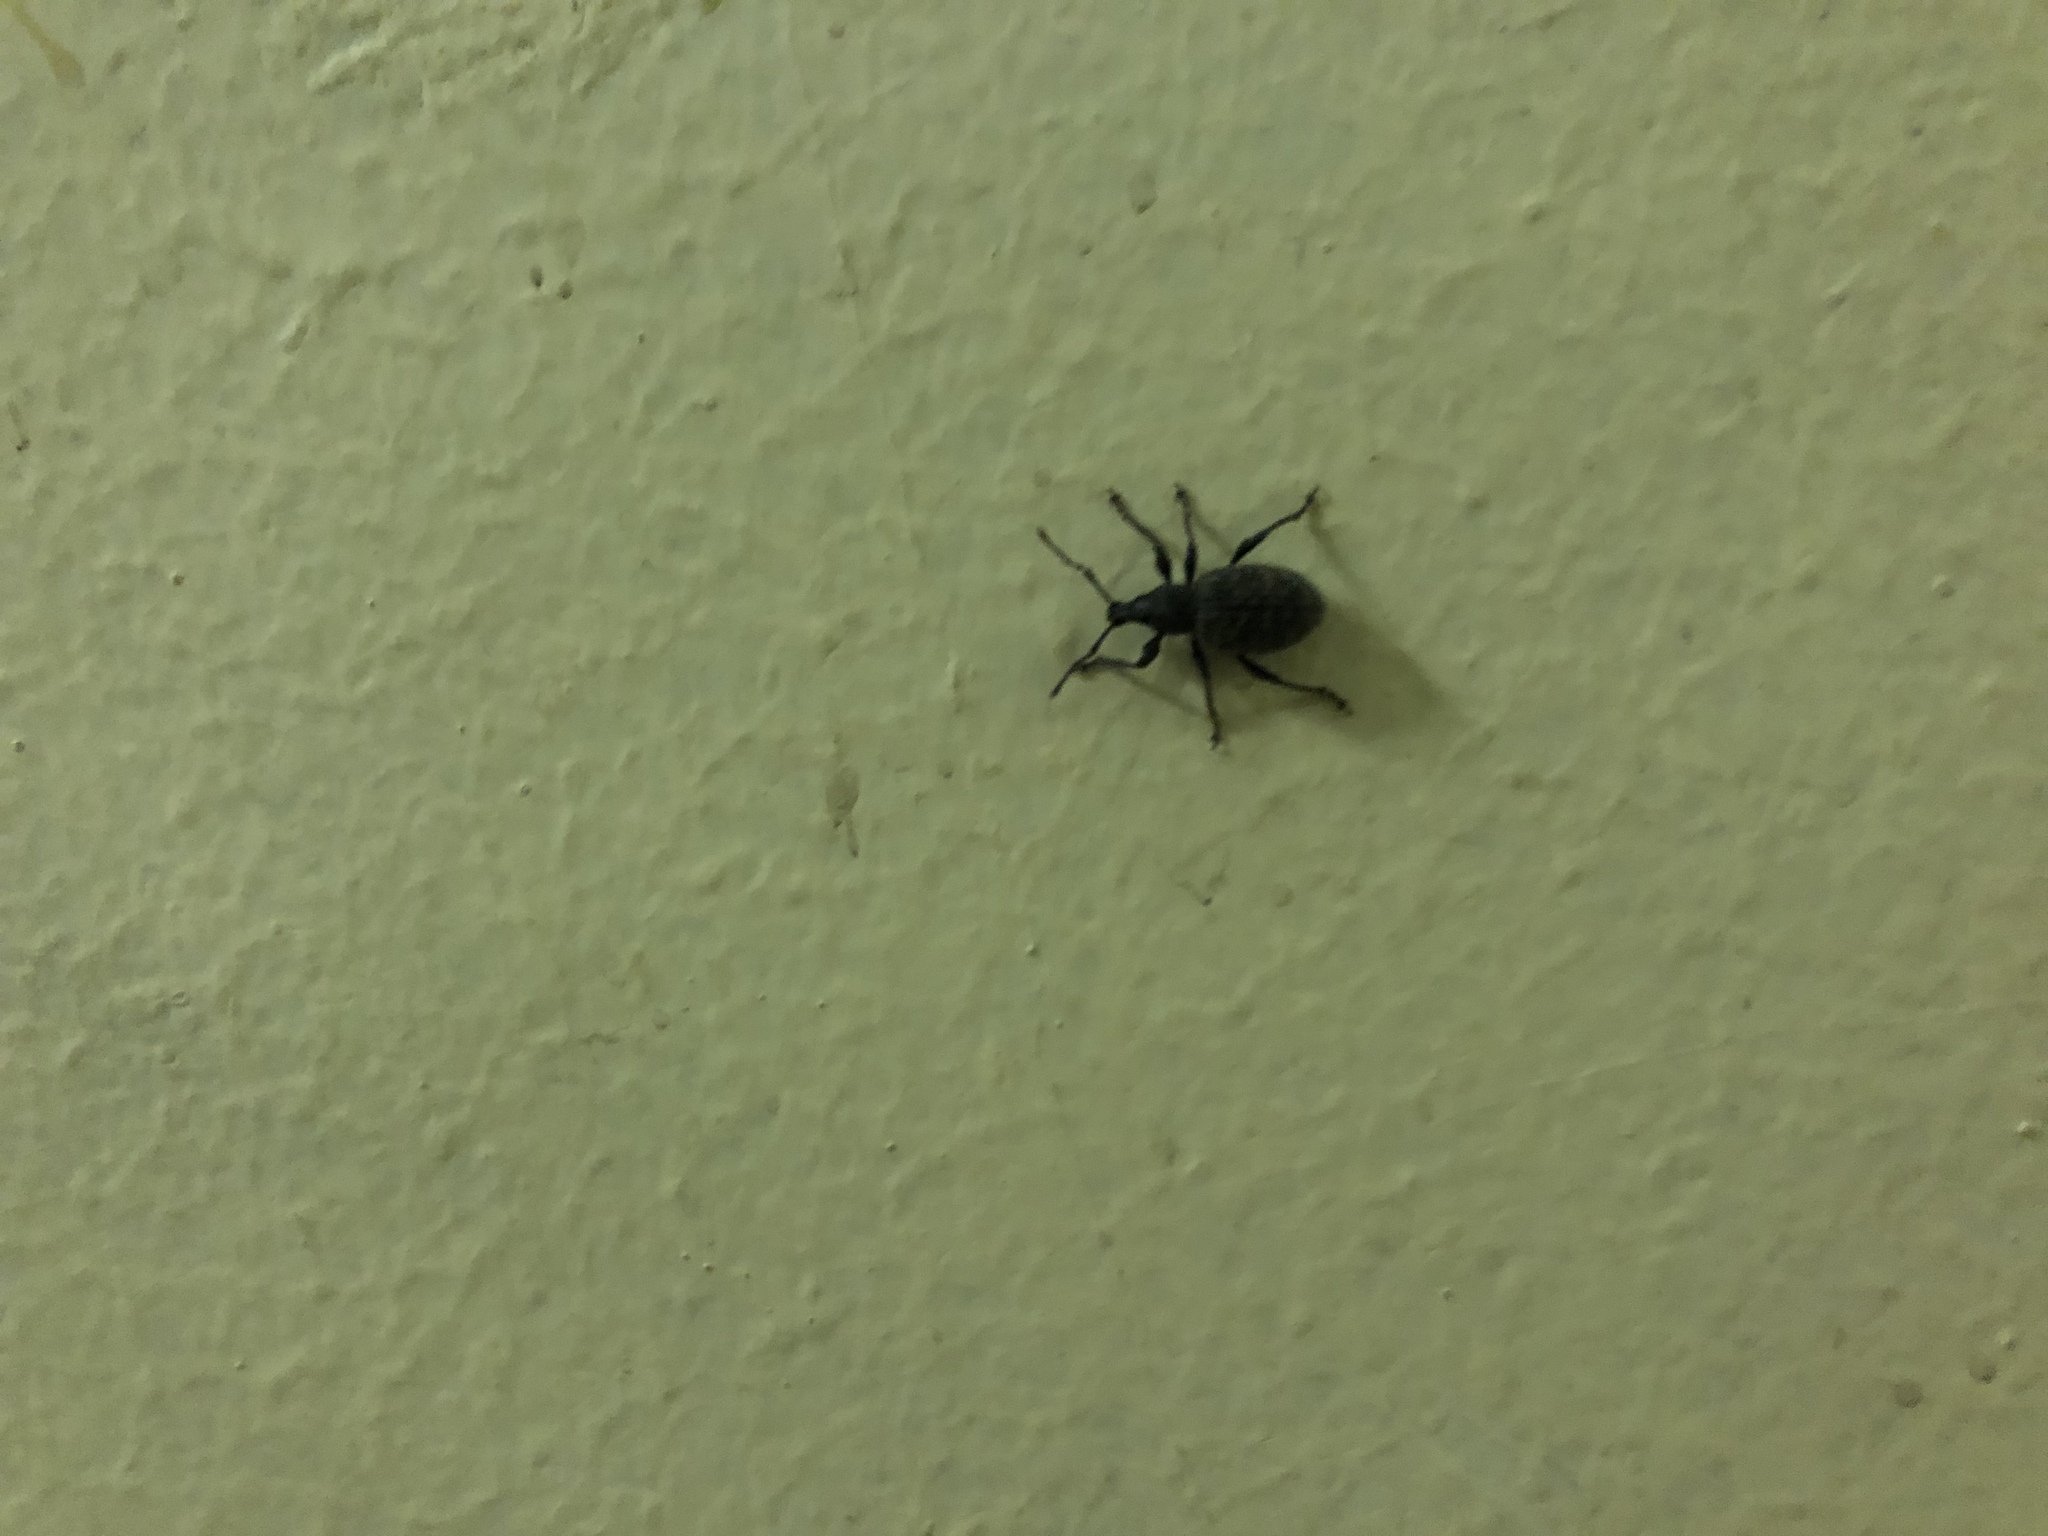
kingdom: Animalia
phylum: Arthropoda
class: Insecta
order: Coleoptera
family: Curculionidae
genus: Otiorhynchus
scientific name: Otiorhynchus sulcatus
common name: Black vine weevil
